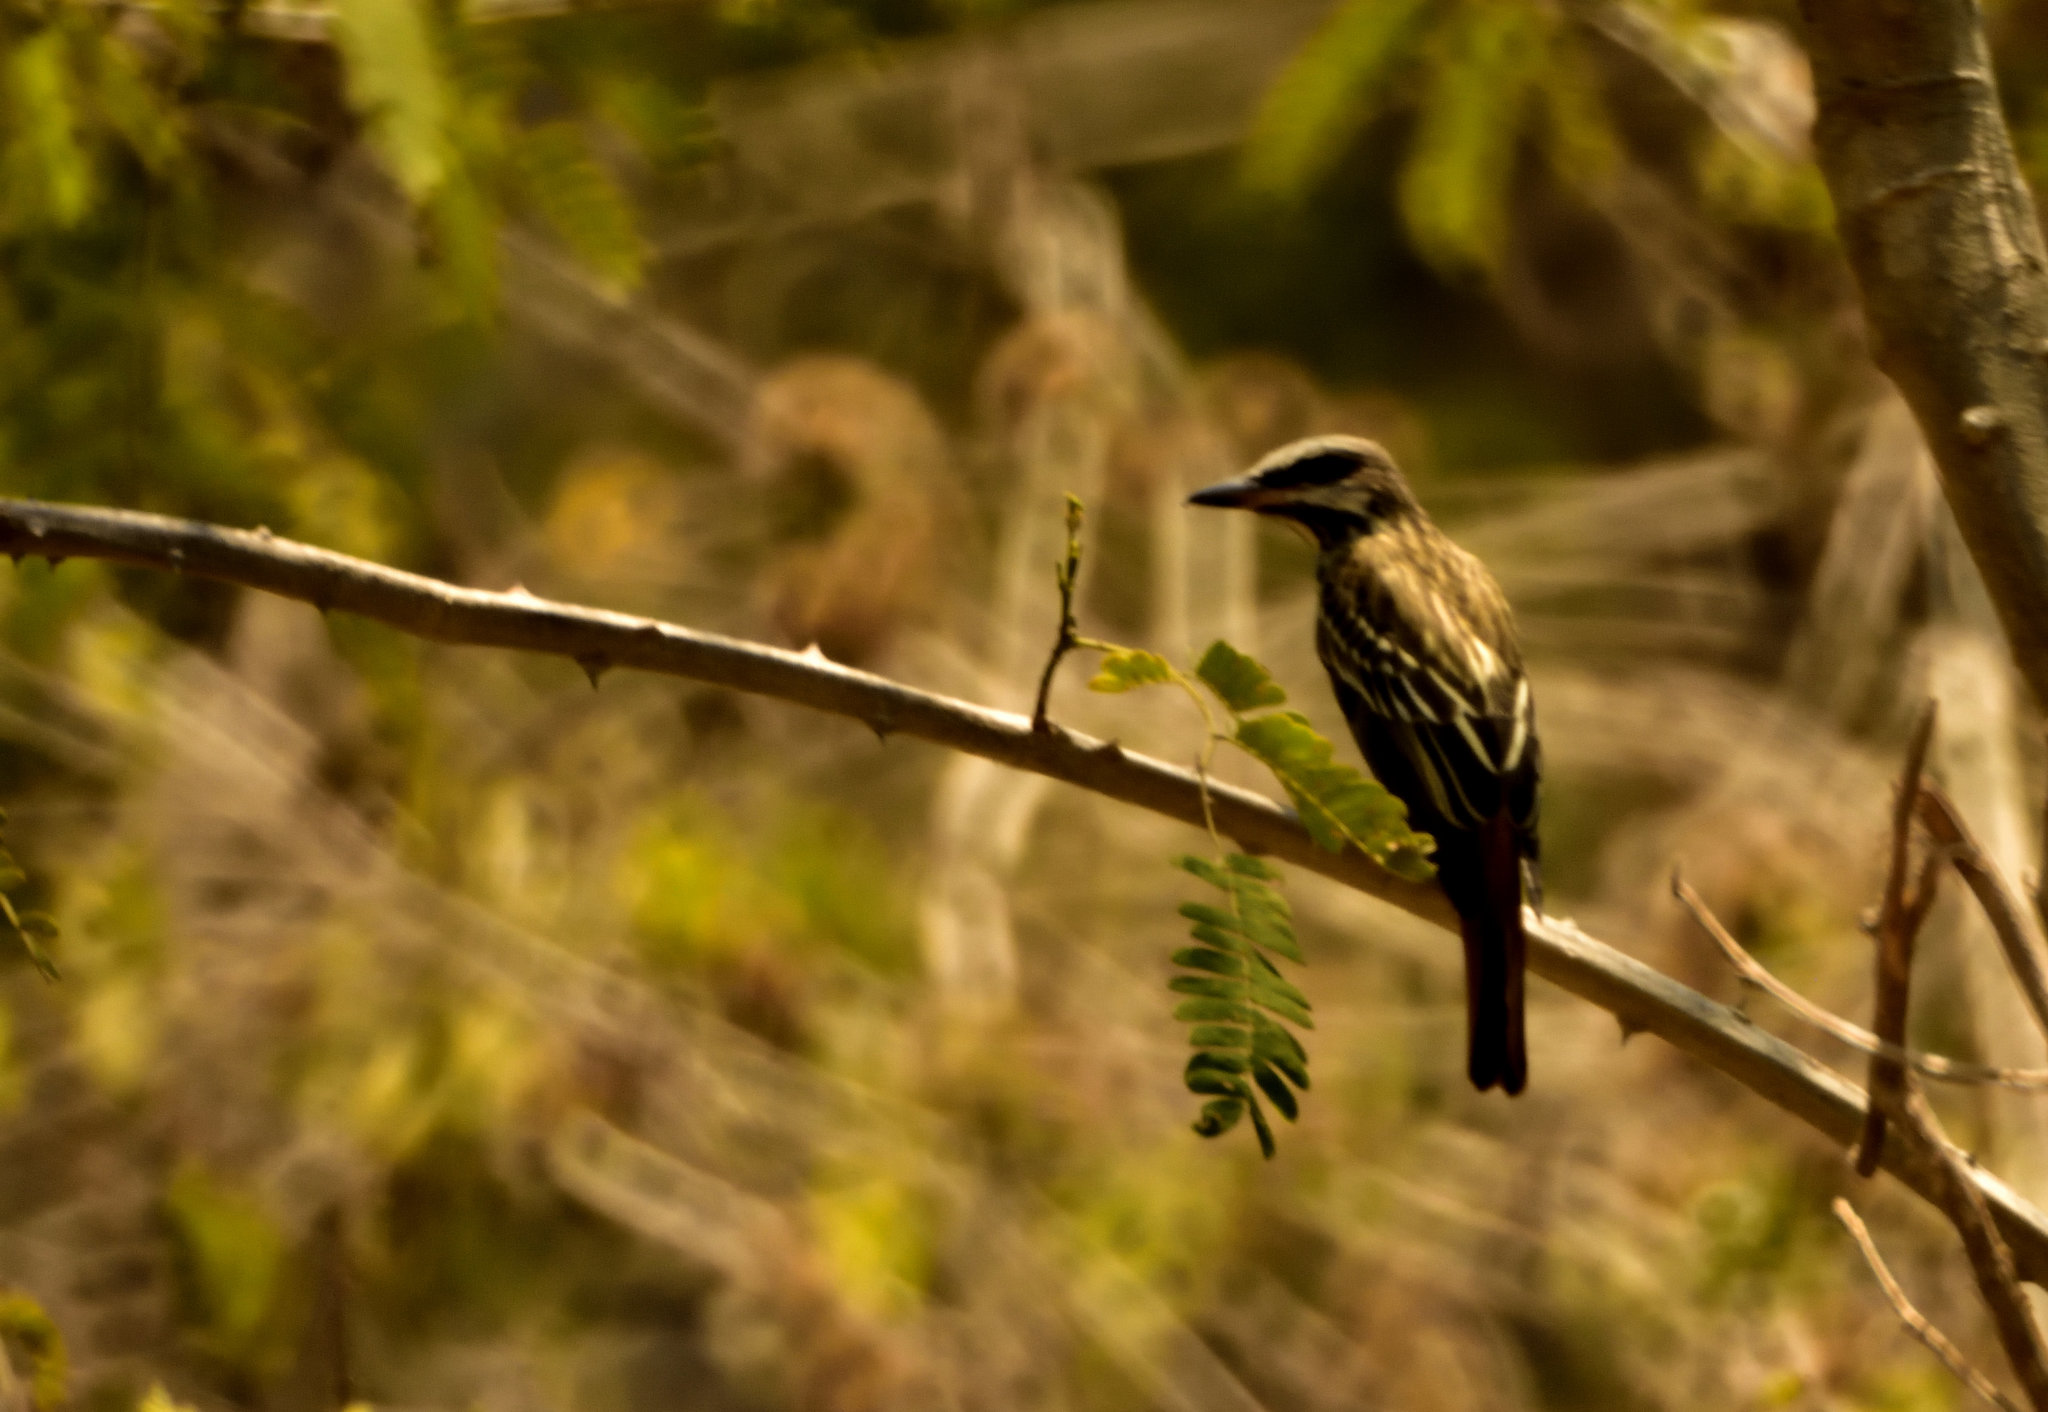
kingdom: Animalia
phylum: Chordata
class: Aves
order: Passeriformes
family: Tyrannidae
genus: Myiodynastes
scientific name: Myiodynastes luteiventris
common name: Sulphur-bellied flycatcher
